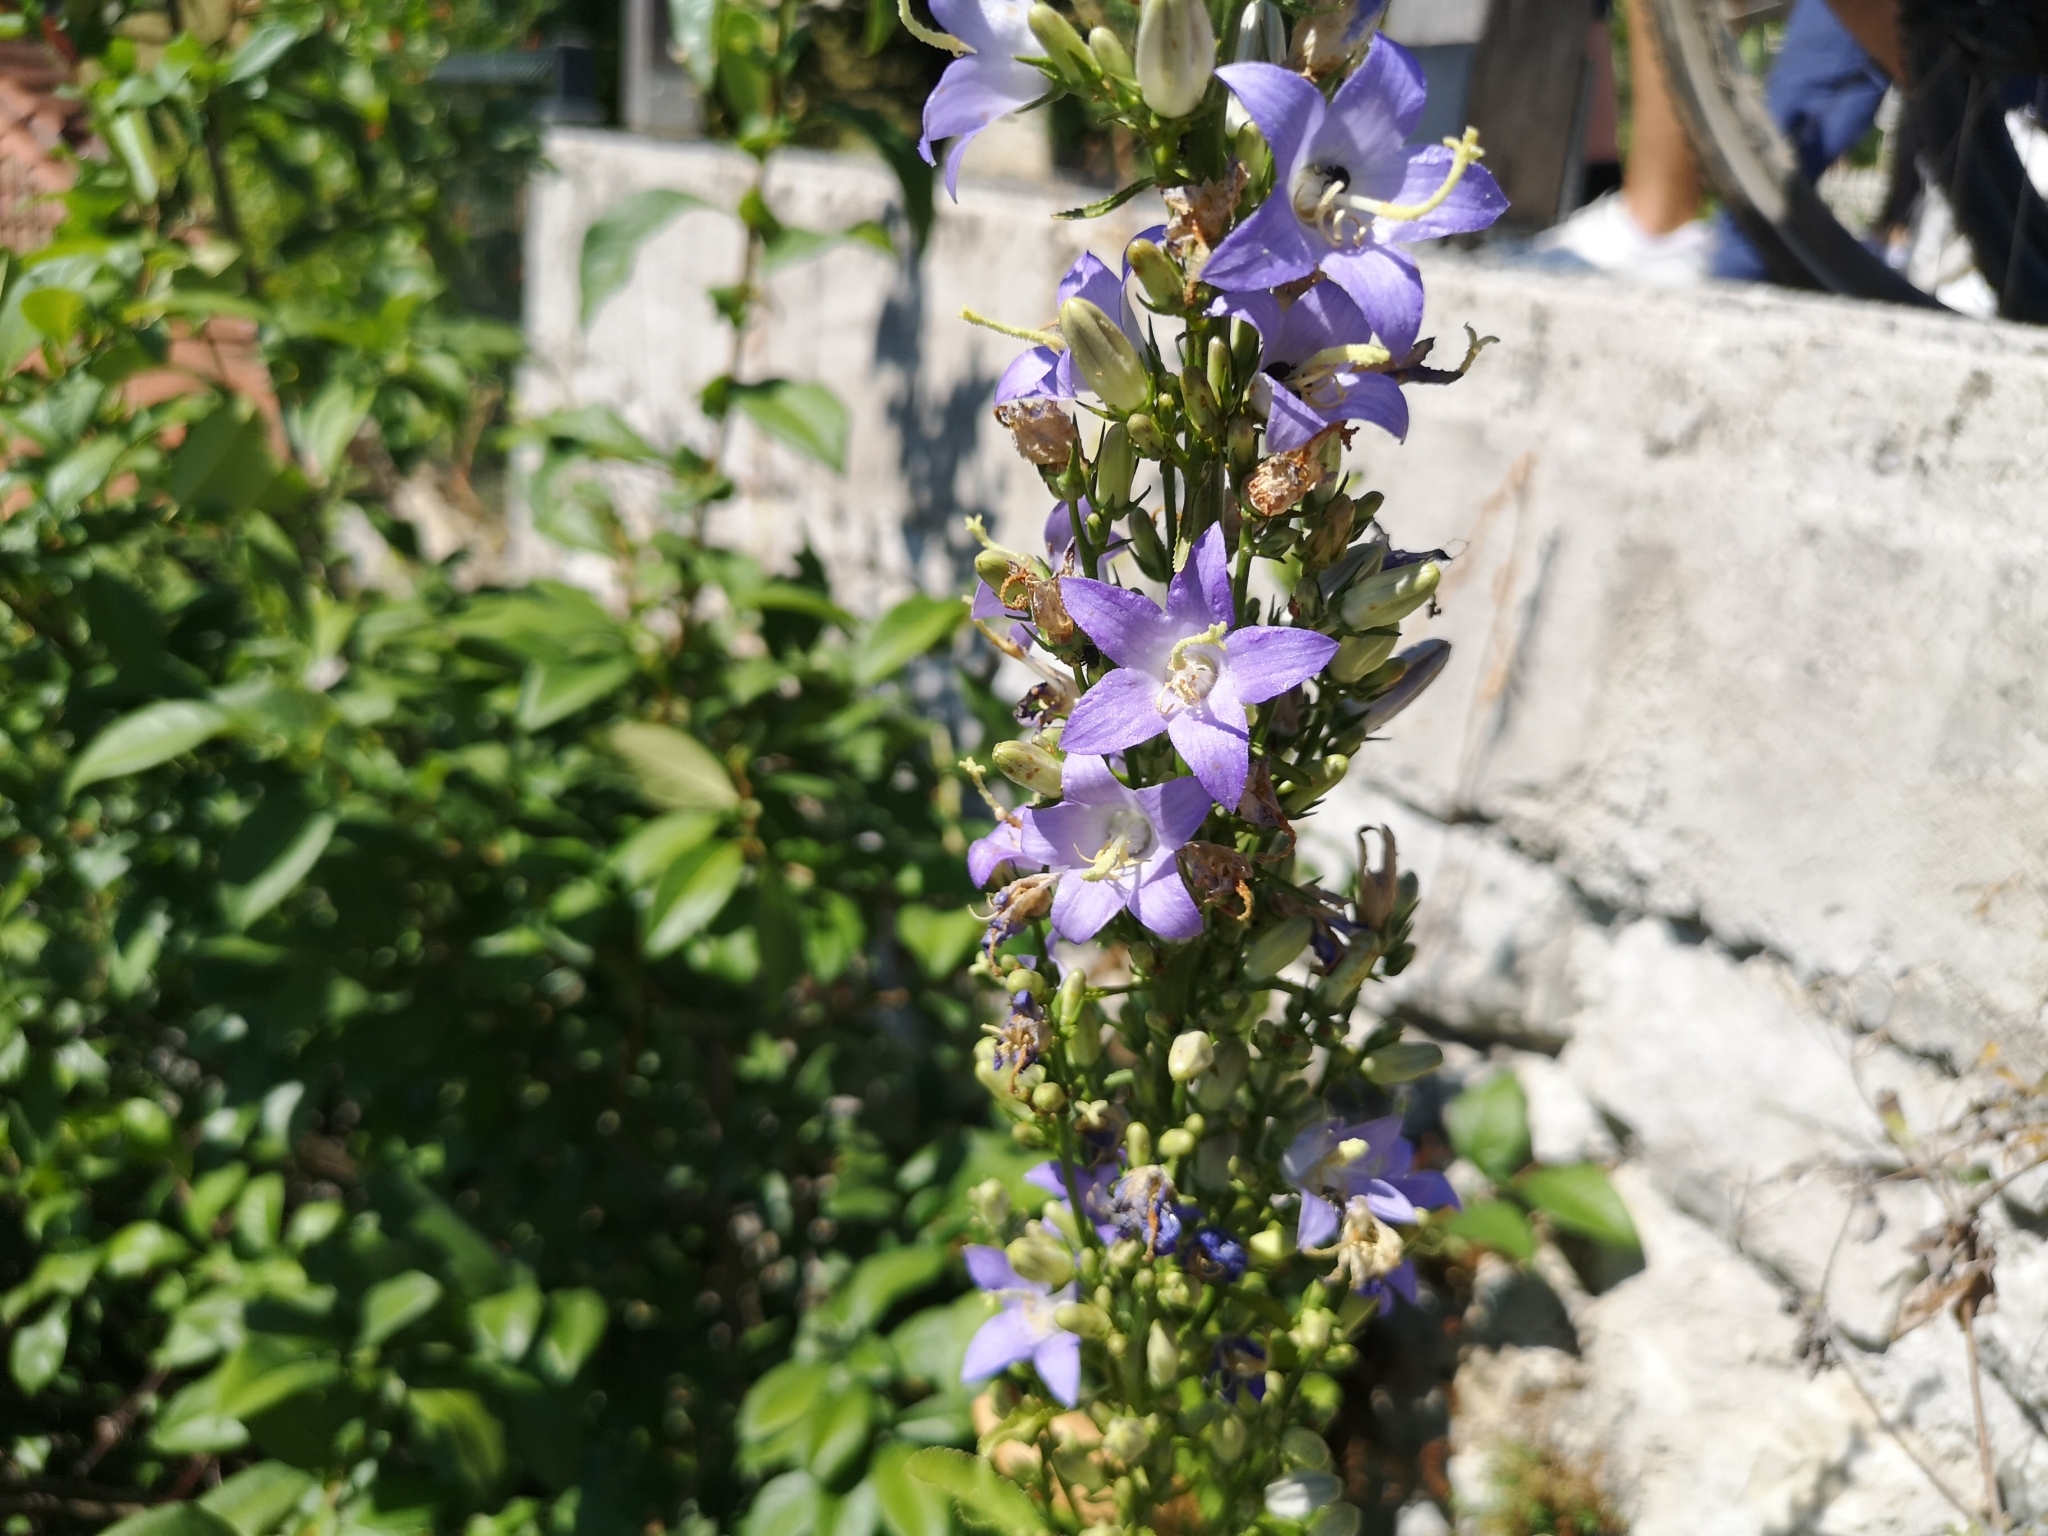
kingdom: Plantae
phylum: Tracheophyta
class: Magnoliopsida
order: Asterales
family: Campanulaceae
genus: Campanula
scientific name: Campanula pyramidalis
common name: Chimney bellflower
